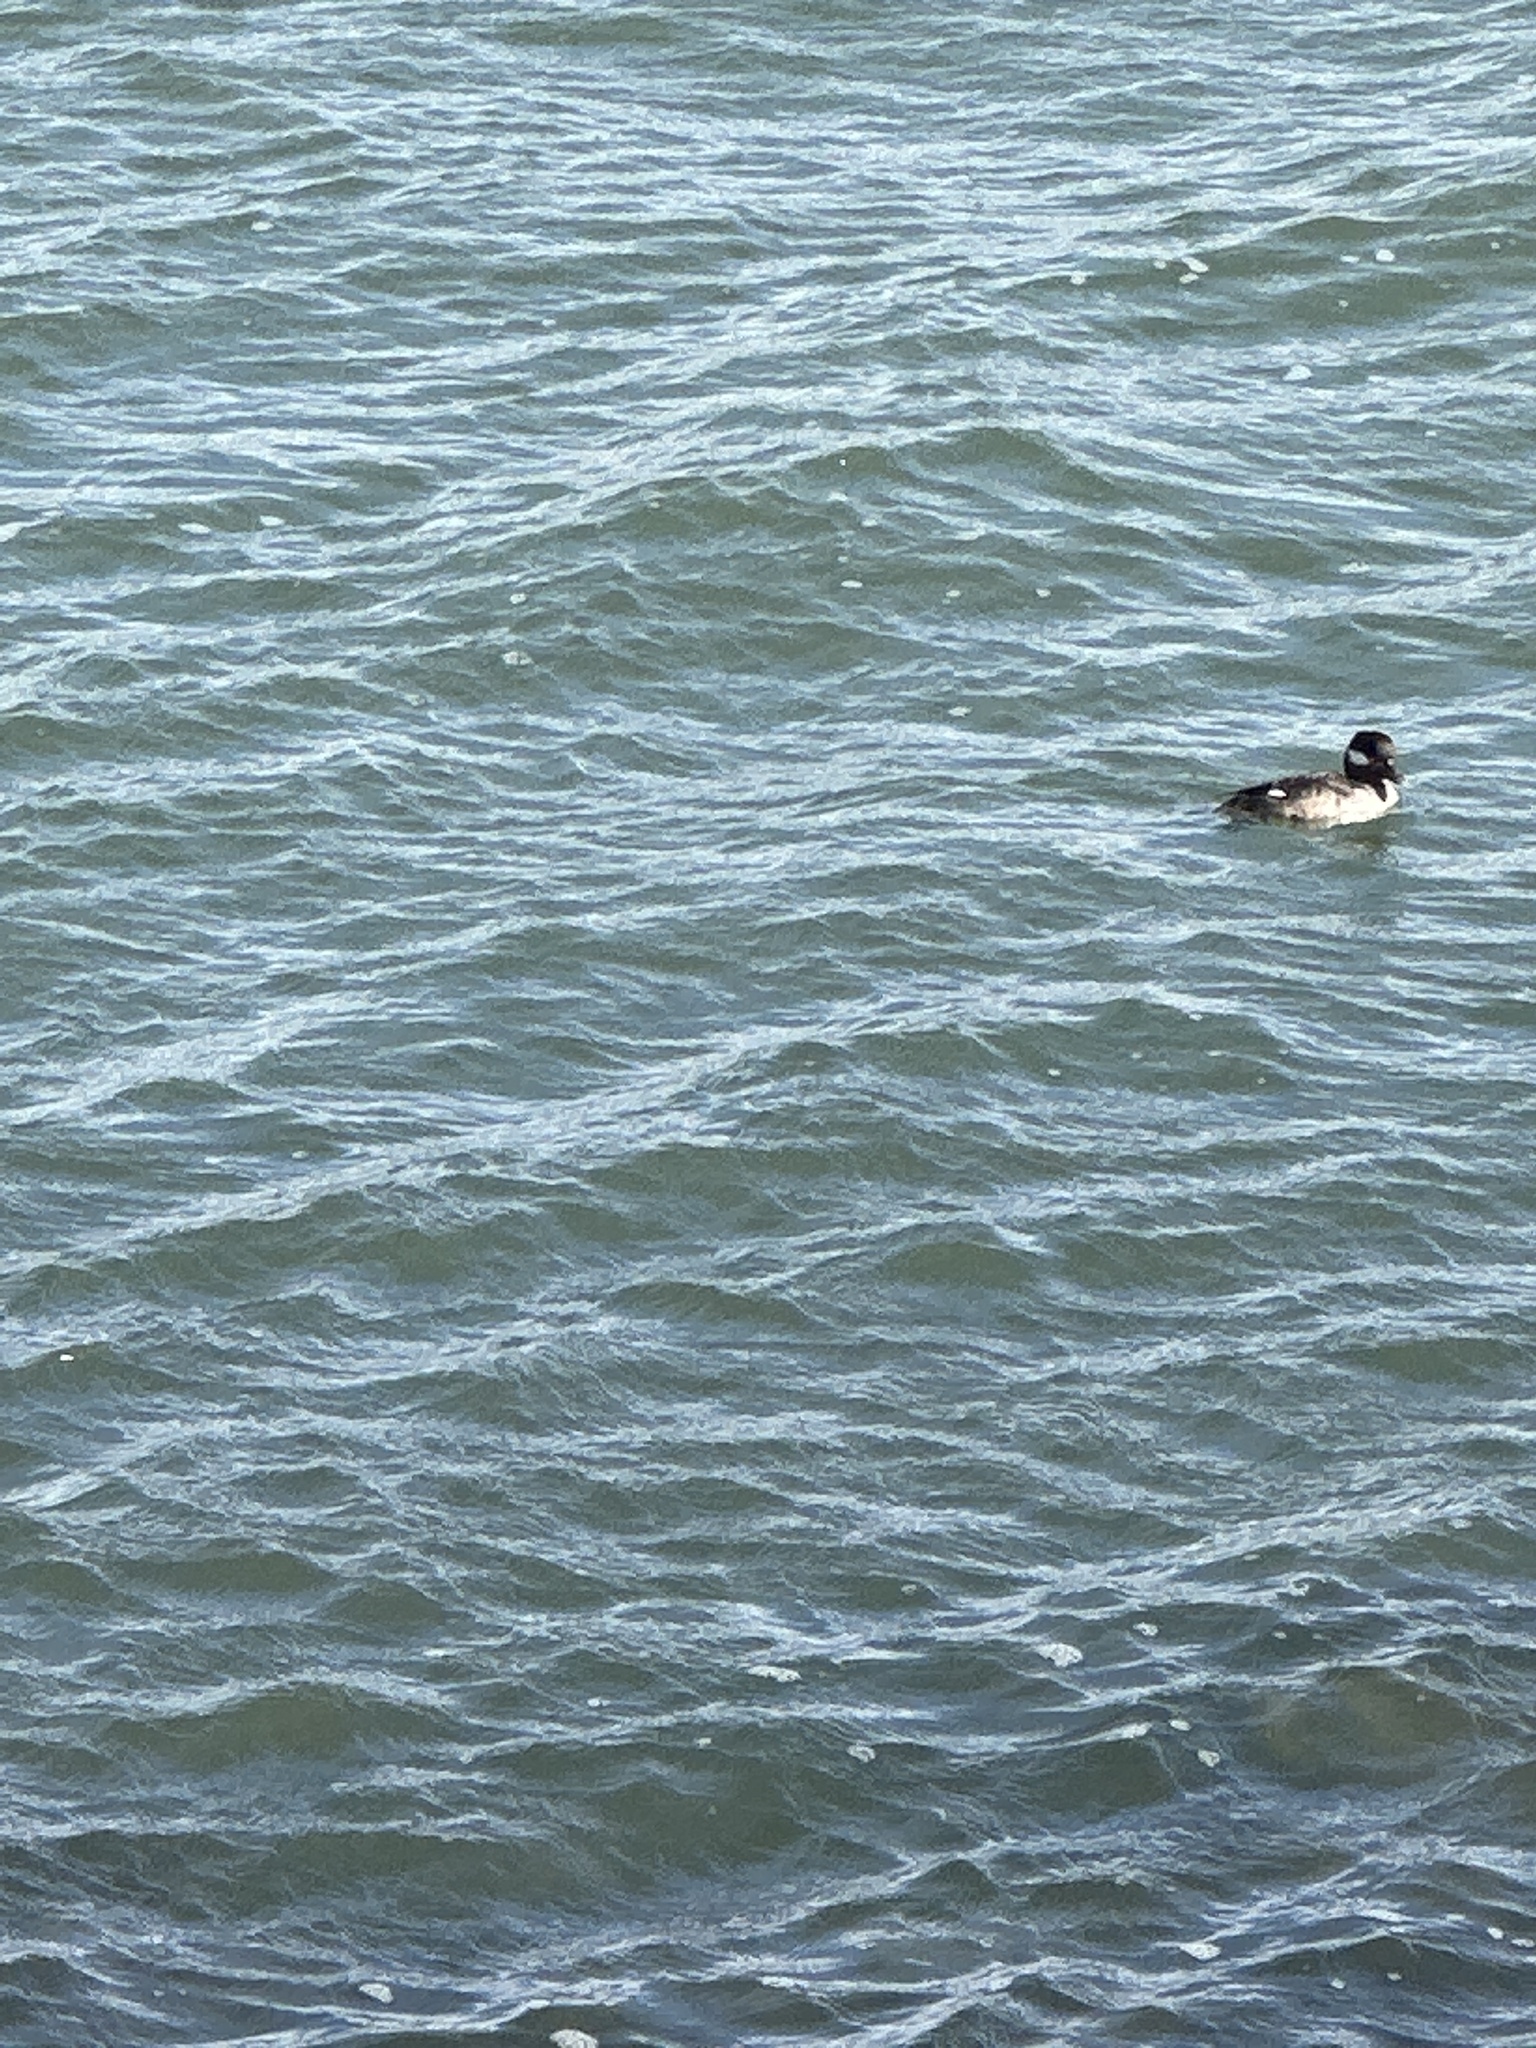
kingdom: Animalia
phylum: Chordata
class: Aves
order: Anseriformes
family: Anatidae
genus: Bucephala
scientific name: Bucephala albeola
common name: Bufflehead
